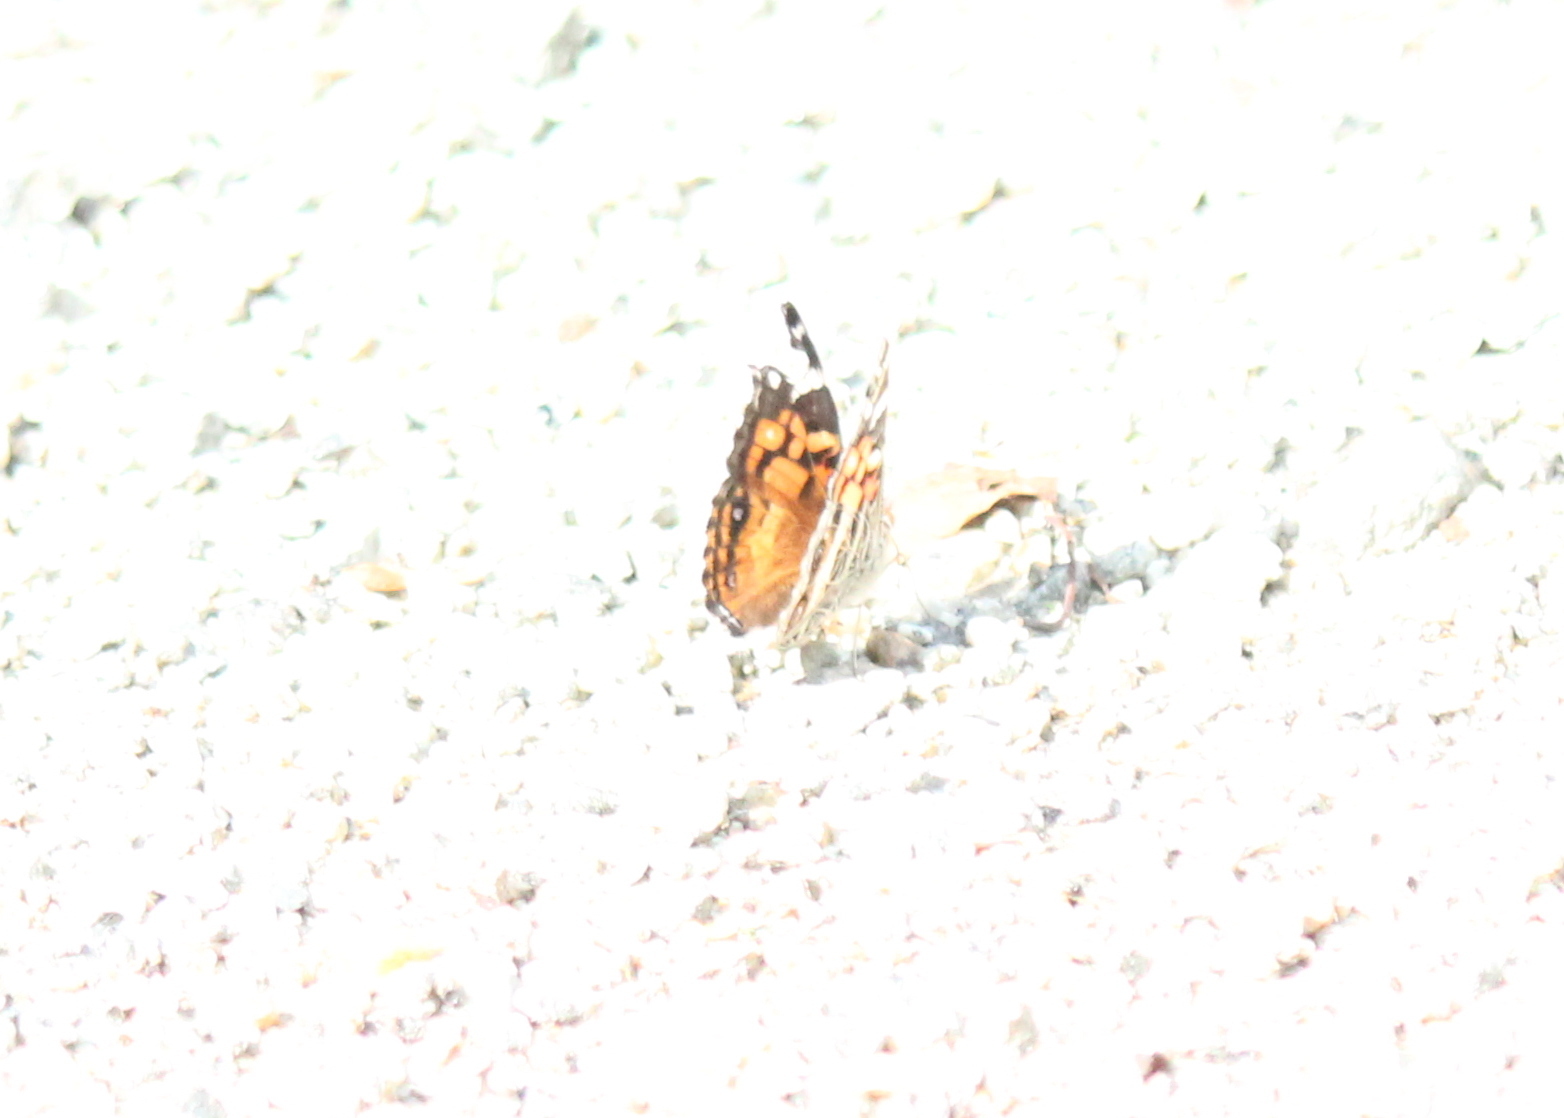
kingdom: Animalia
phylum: Arthropoda
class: Insecta
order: Lepidoptera
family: Nymphalidae
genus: Vanessa
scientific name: Vanessa virginiensis
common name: American lady
